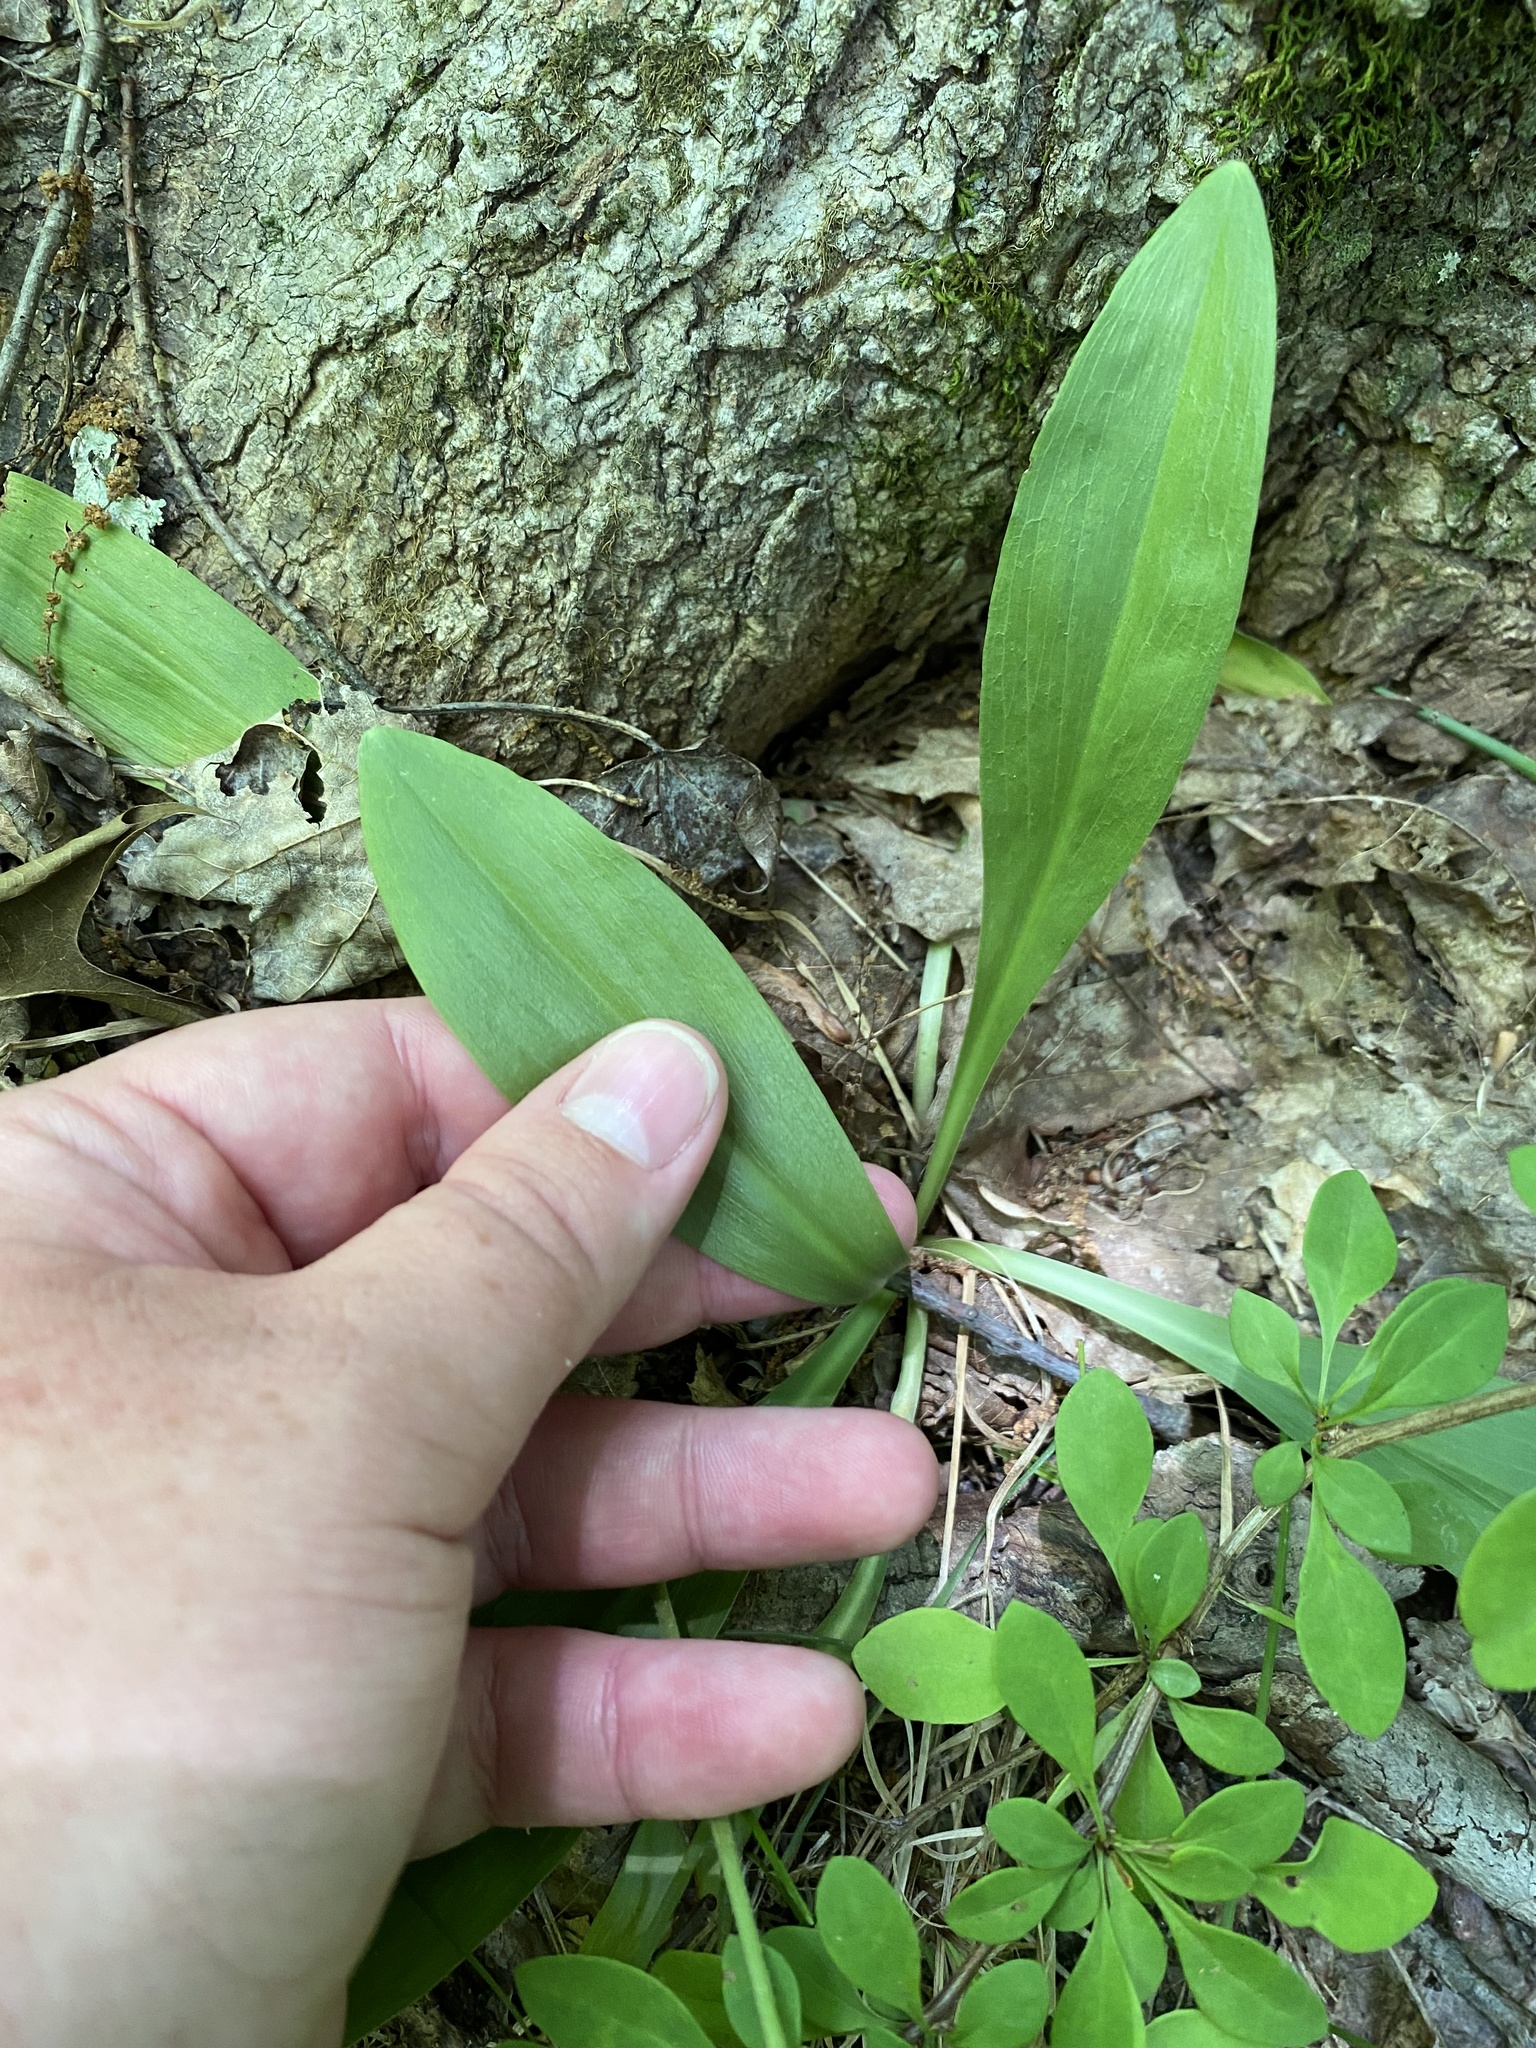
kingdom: Plantae
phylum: Tracheophyta
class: Liliopsida
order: Liliales
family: Melanthiaceae
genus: Chamaelirium
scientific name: Chamaelirium luteum
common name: Fairy-wand
